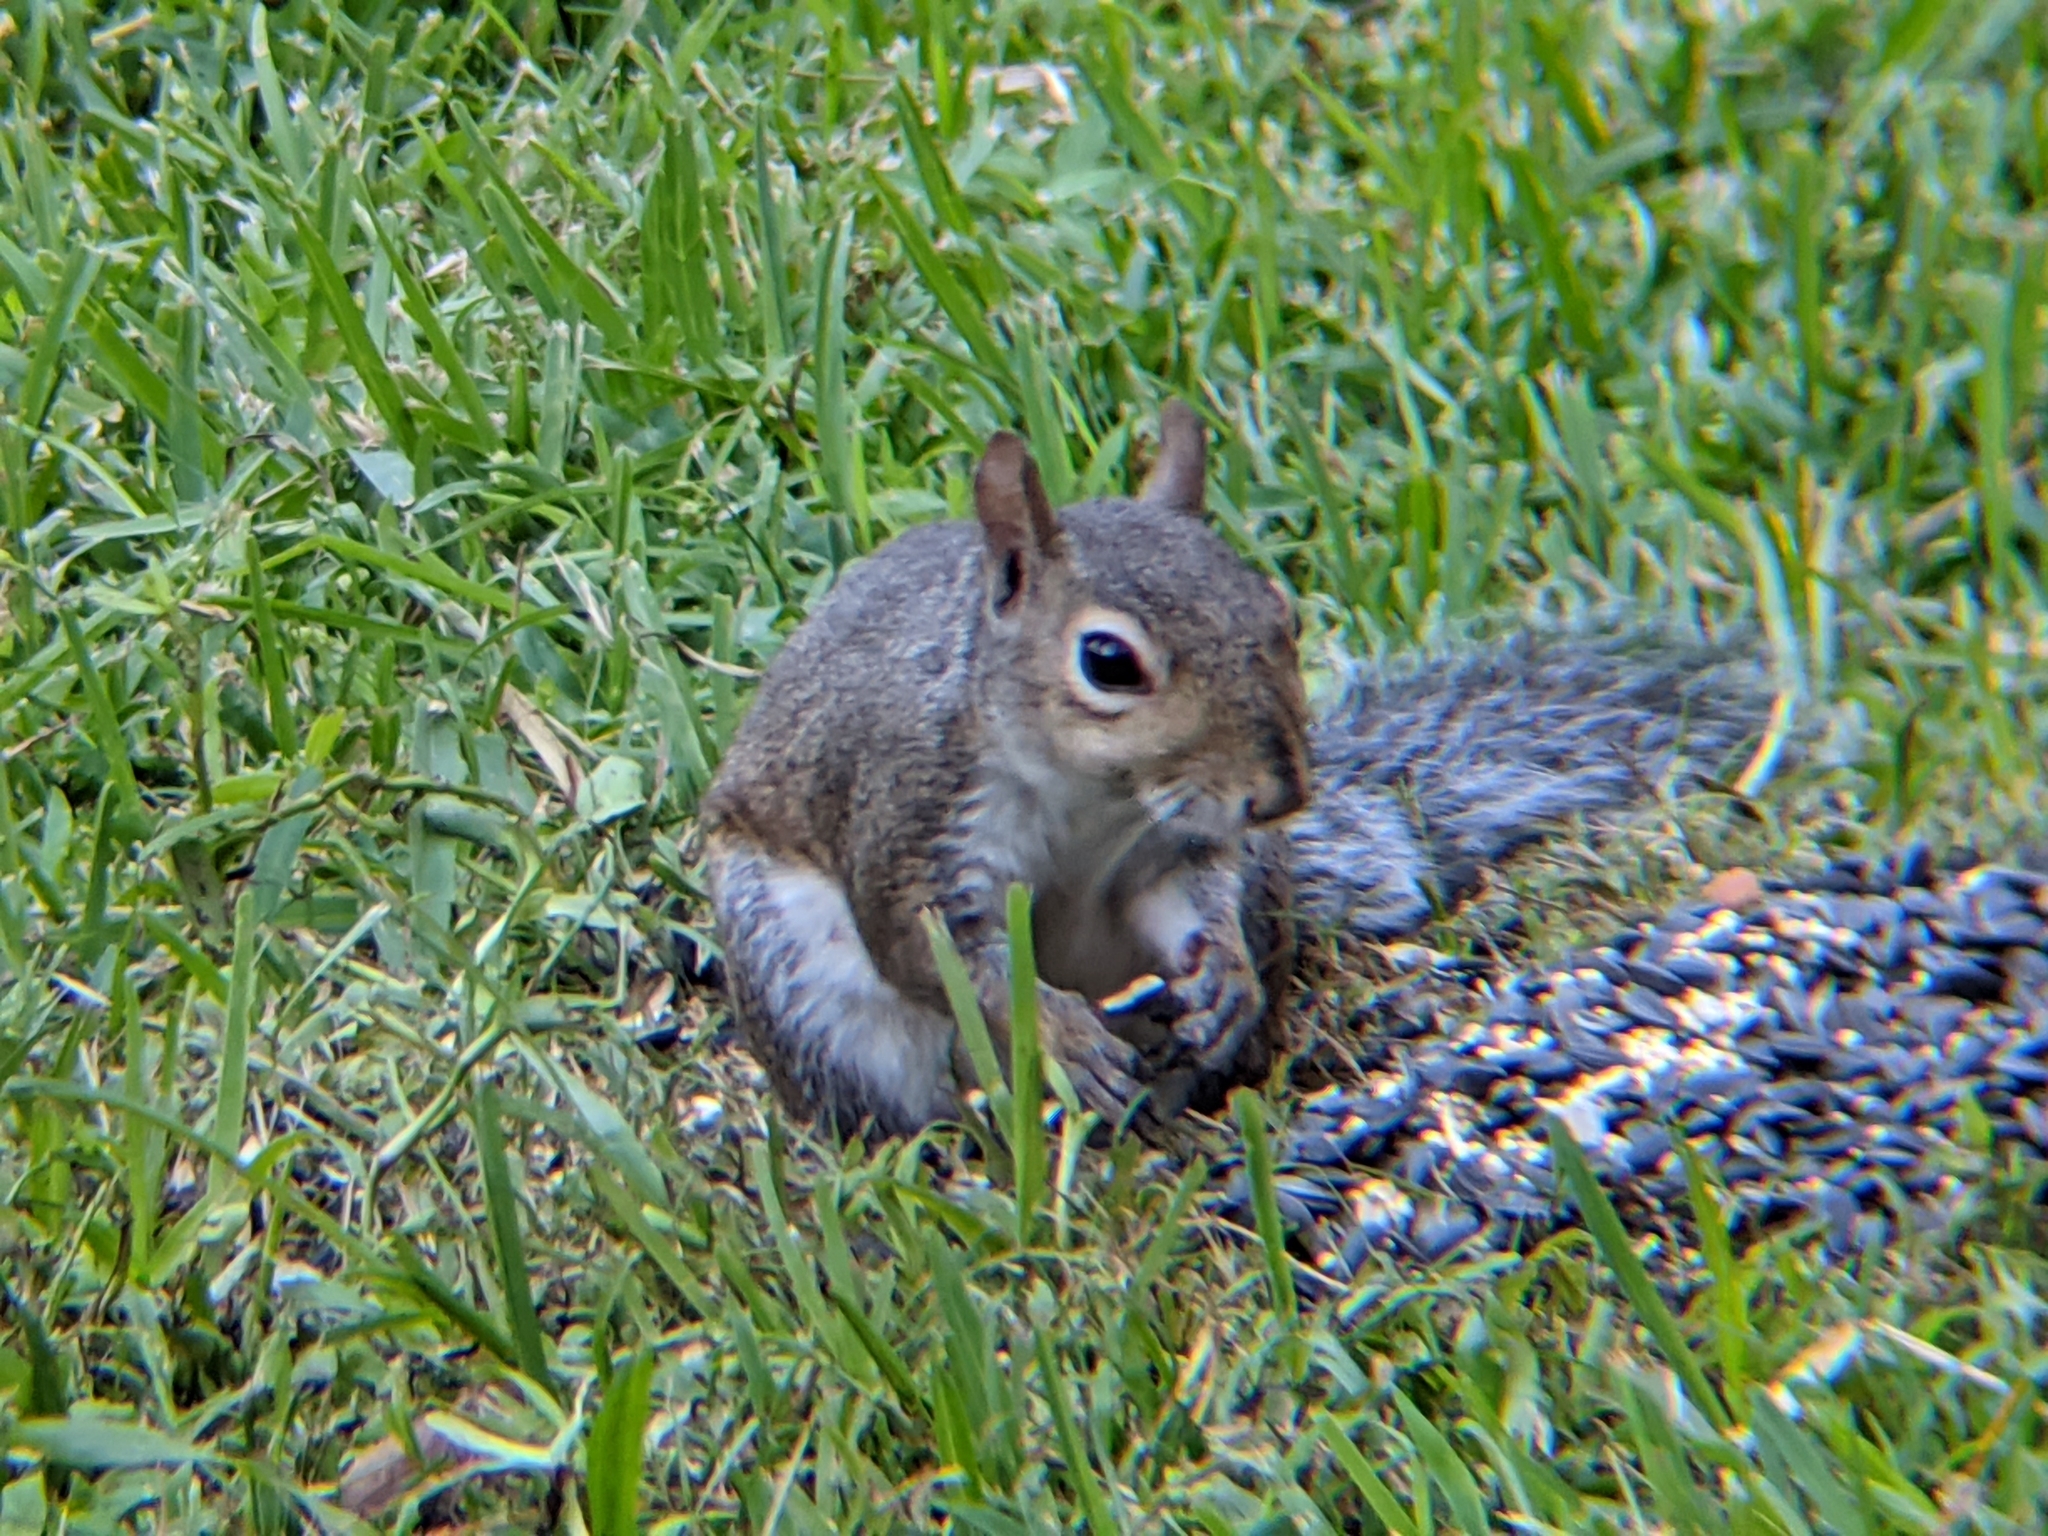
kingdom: Animalia
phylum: Chordata
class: Mammalia
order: Rodentia
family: Sciuridae
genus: Sciurus
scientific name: Sciurus carolinensis
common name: Eastern gray squirrel
